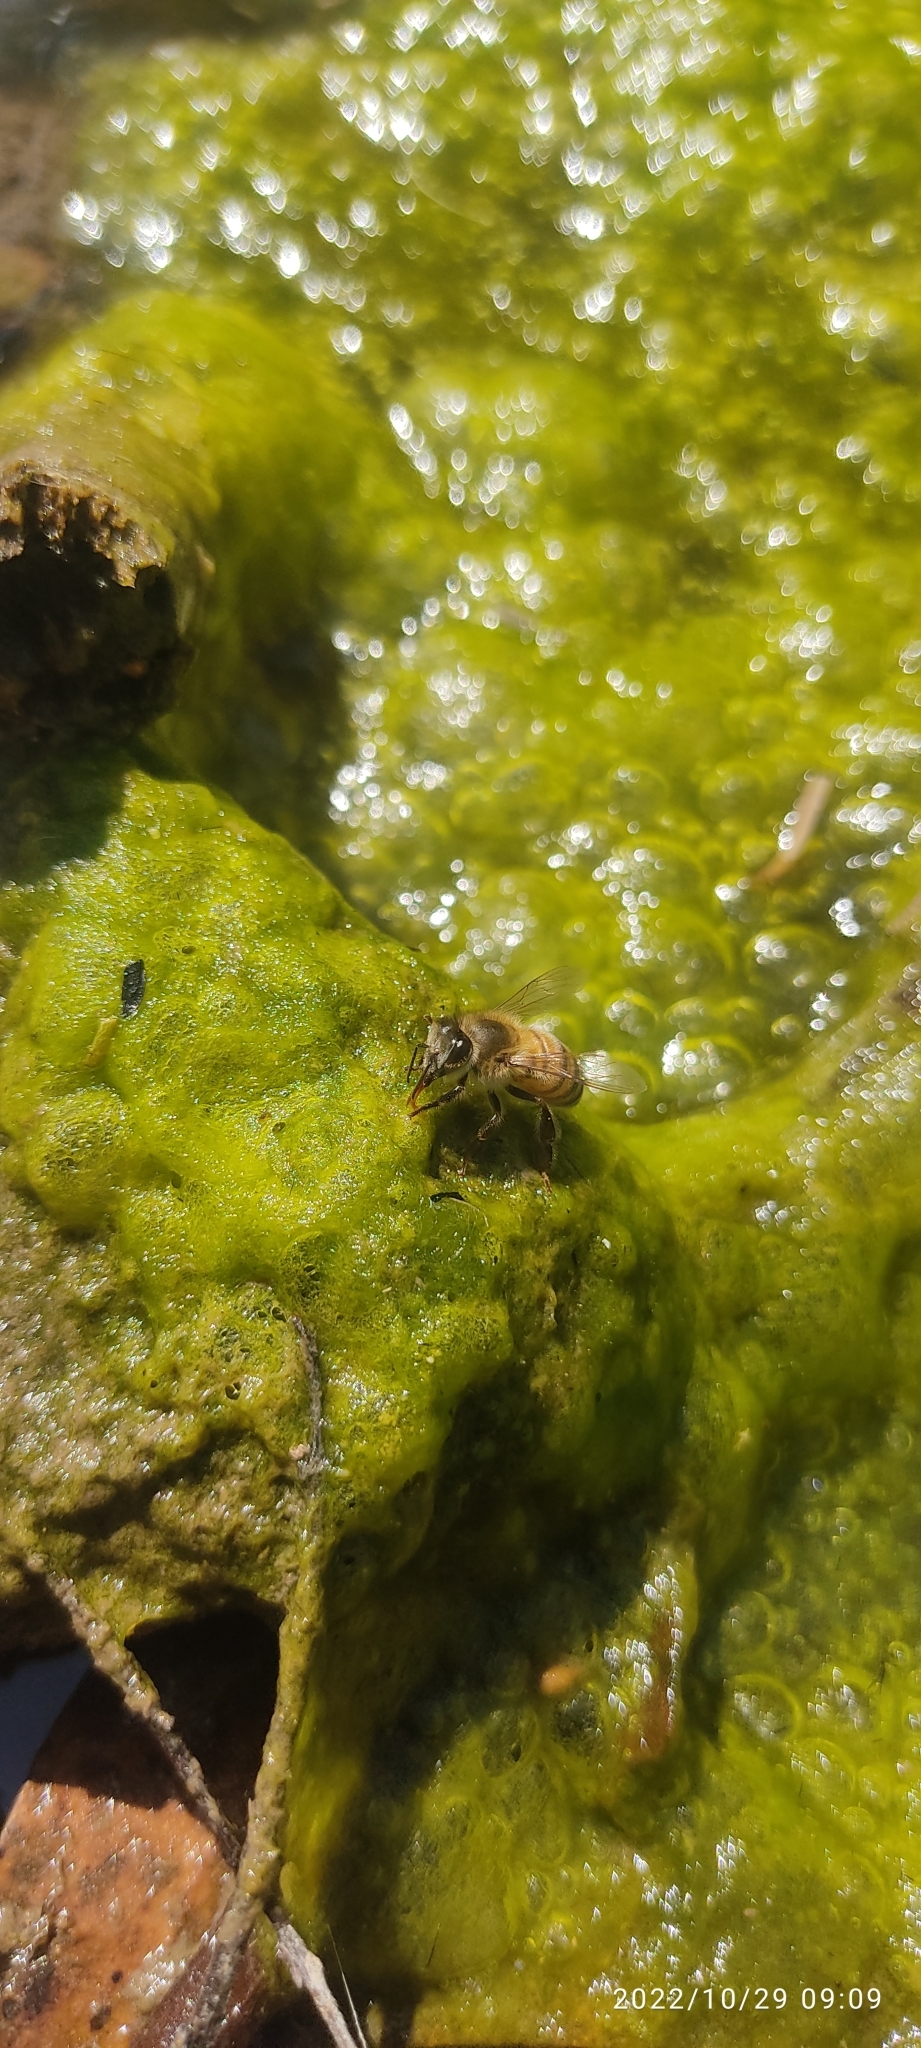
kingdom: Animalia
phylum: Arthropoda
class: Insecta
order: Hymenoptera
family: Apidae
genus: Apis
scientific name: Apis mellifera
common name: Honey bee
